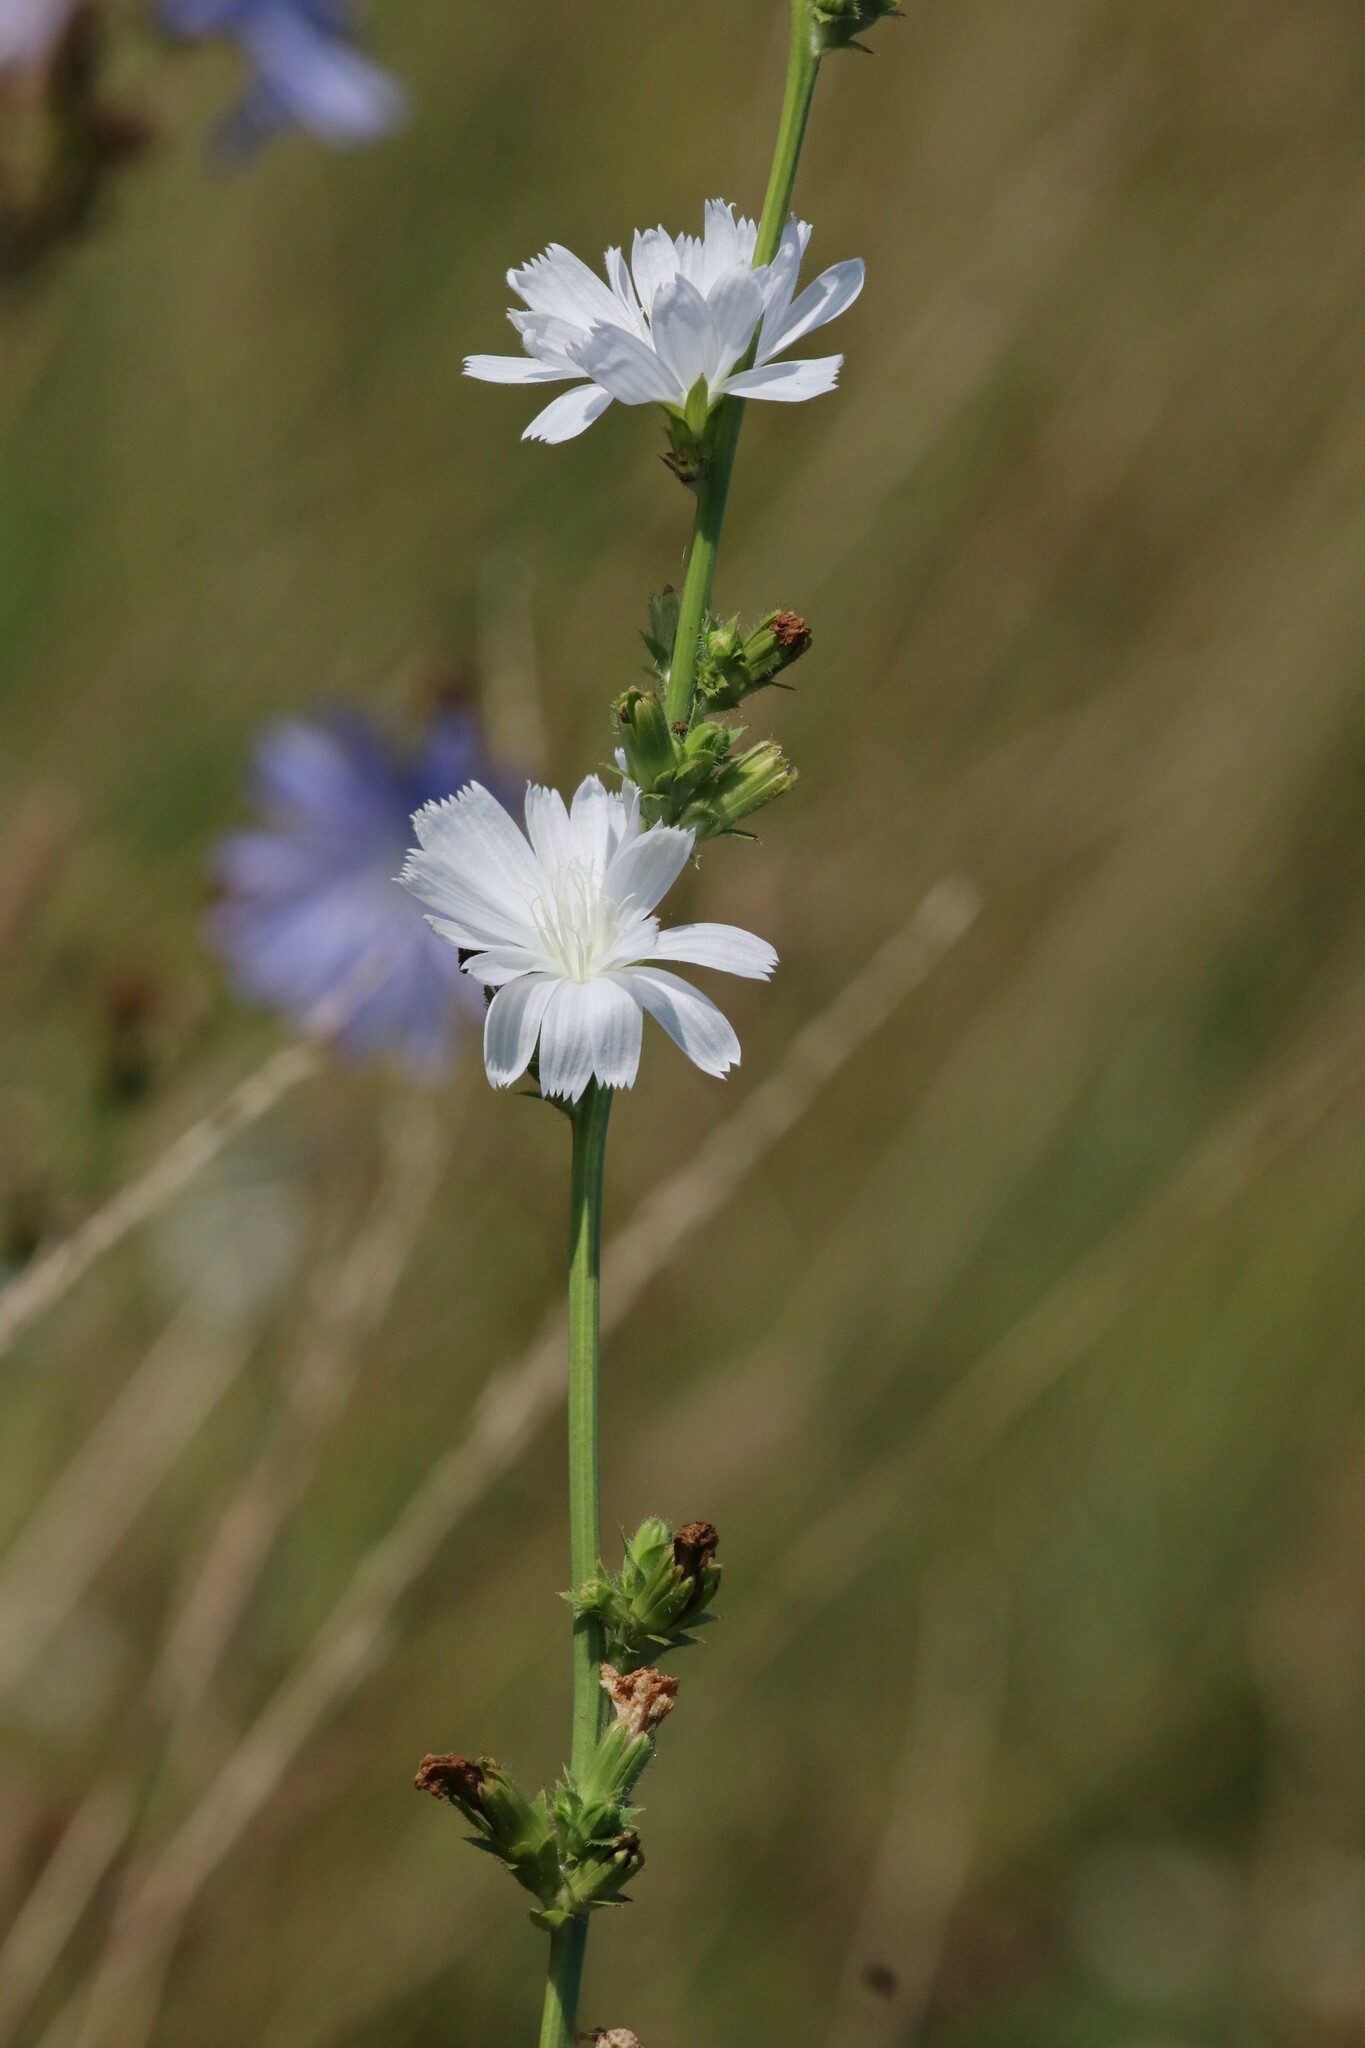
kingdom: Plantae
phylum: Tracheophyta
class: Magnoliopsida
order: Asterales
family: Asteraceae
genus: Cichorium
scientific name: Cichorium intybus
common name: Chicory
